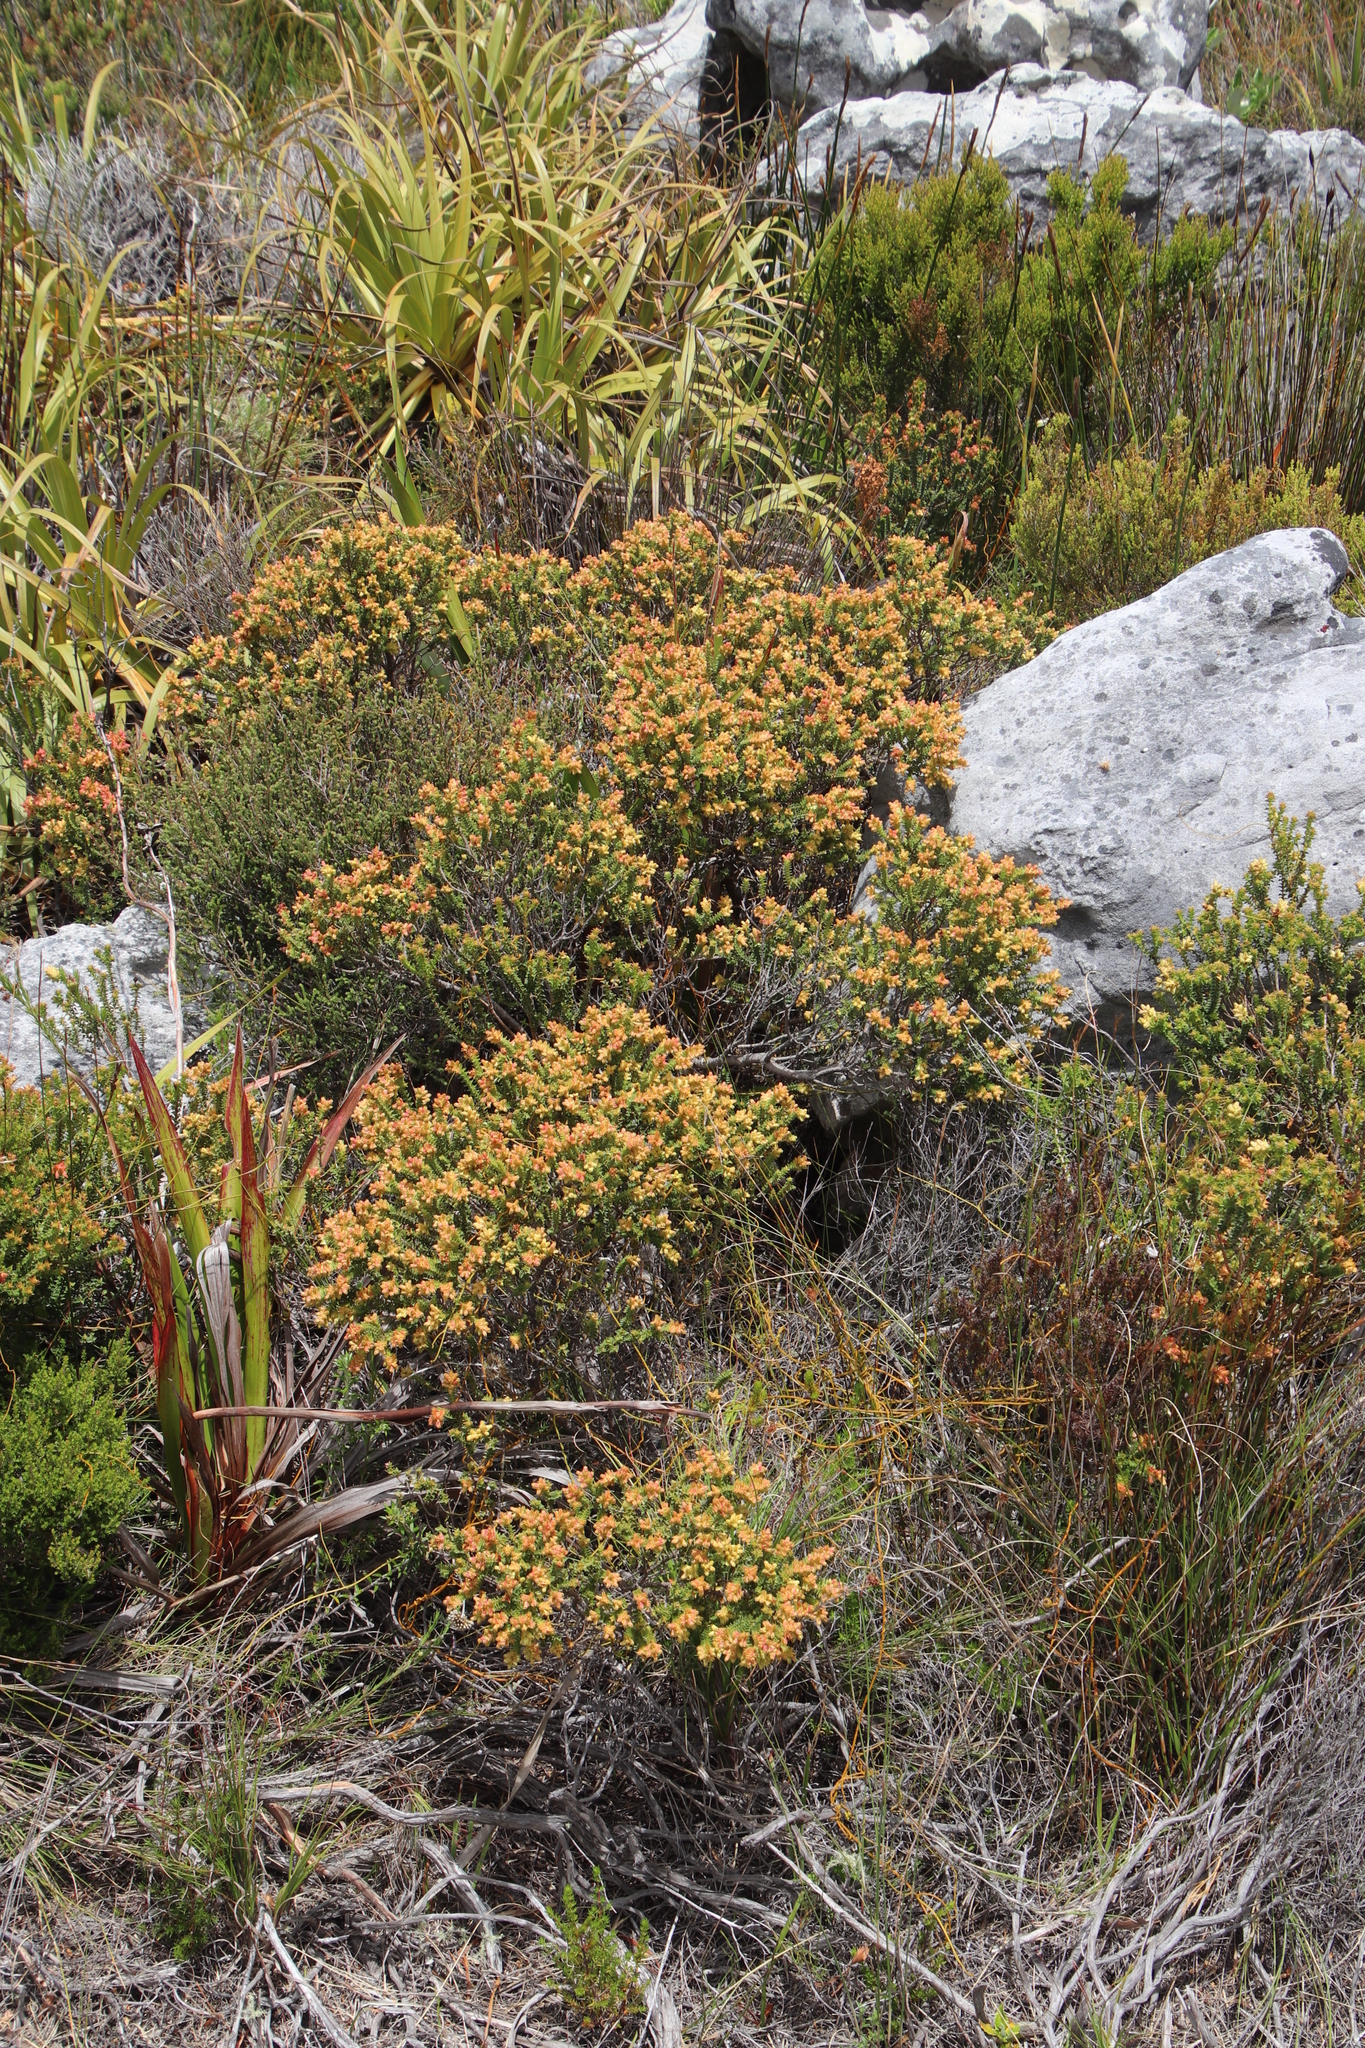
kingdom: Plantae
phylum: Tracheophyta
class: Magnoliopsida
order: Myrtales
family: Penaeaceae
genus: Penaea
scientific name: Penaea mucronata
